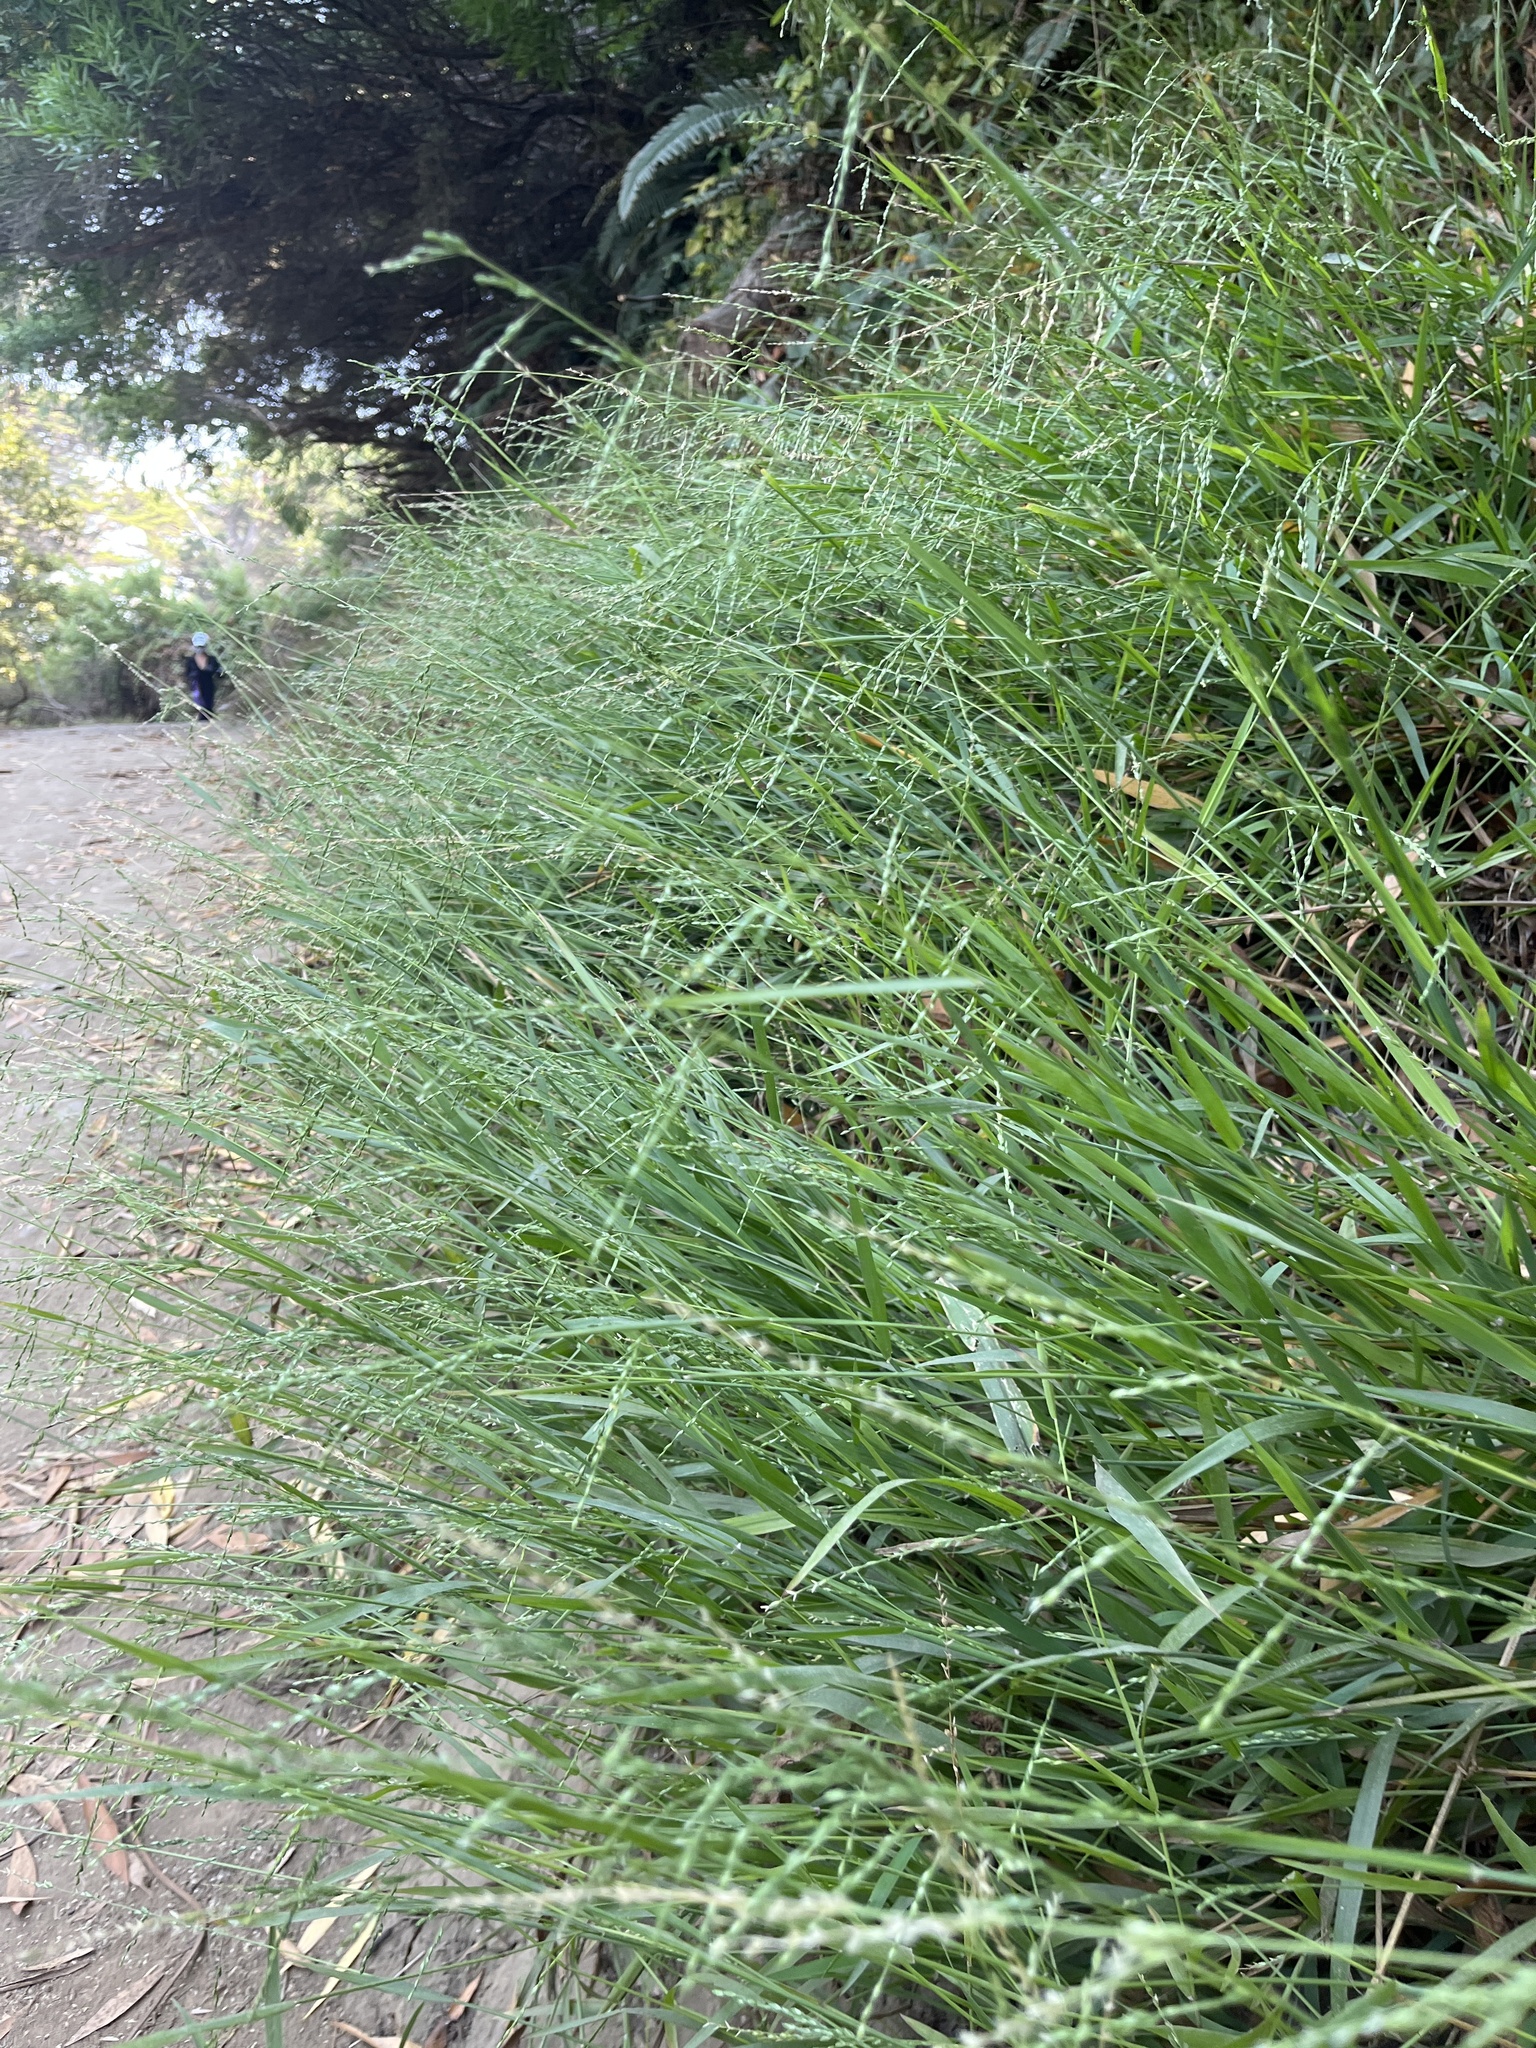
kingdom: Plantae
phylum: Tracheophyta
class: Liliopsida
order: Poales
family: Poaceae
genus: Ehrharta
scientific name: Ehrharta erecta
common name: Panic veldtgrass
